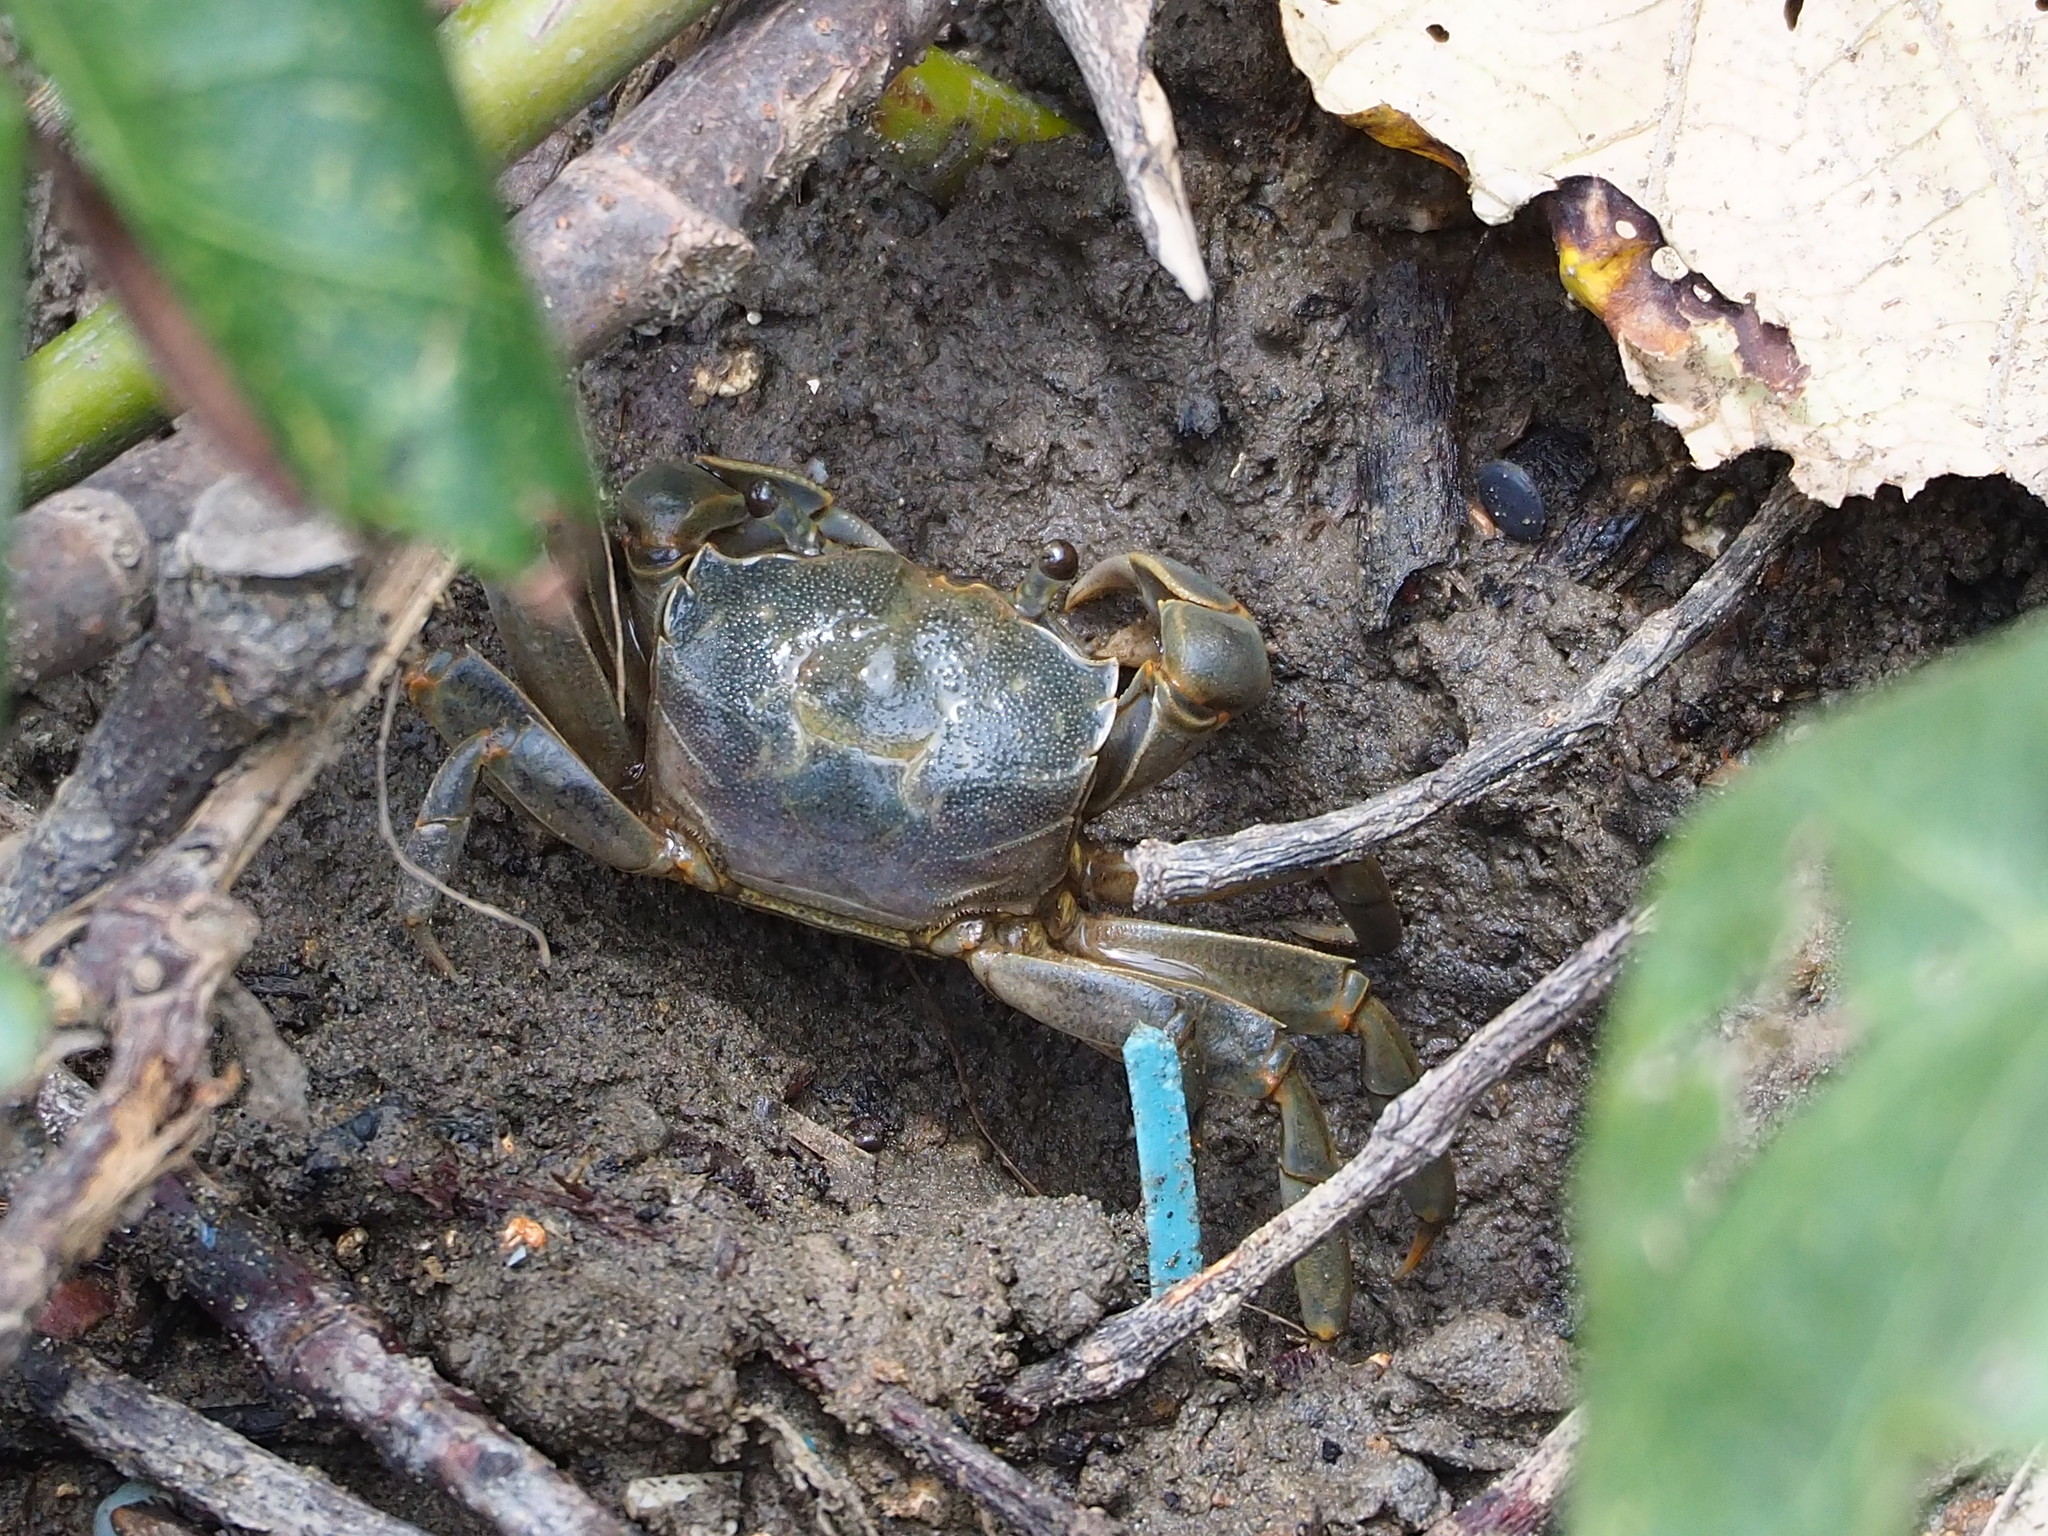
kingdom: Animalia
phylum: Arthropoda
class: Malacostraca
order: Decapoda
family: Varunidae
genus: Helice
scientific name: Helice formosensis
